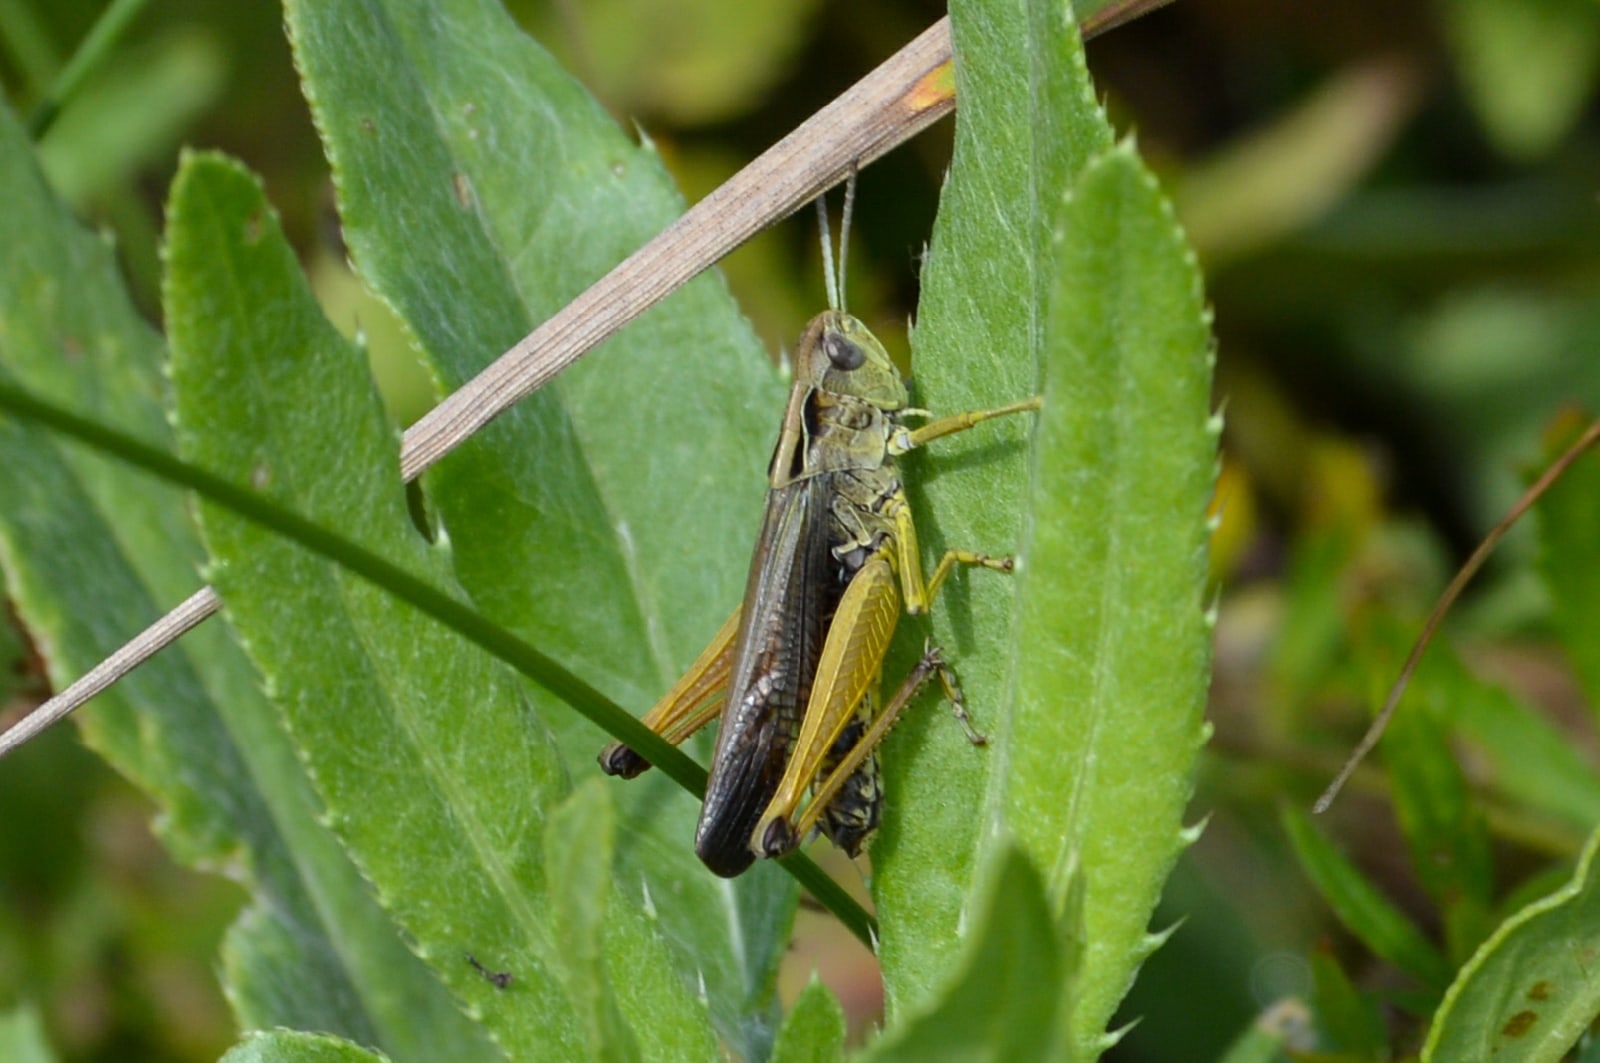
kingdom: Animalia
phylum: Arthropoda
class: Insecta
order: Orthoptera
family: Acrididae
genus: Omocestus
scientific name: Omocestus viridulus
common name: Common green grasshopper
